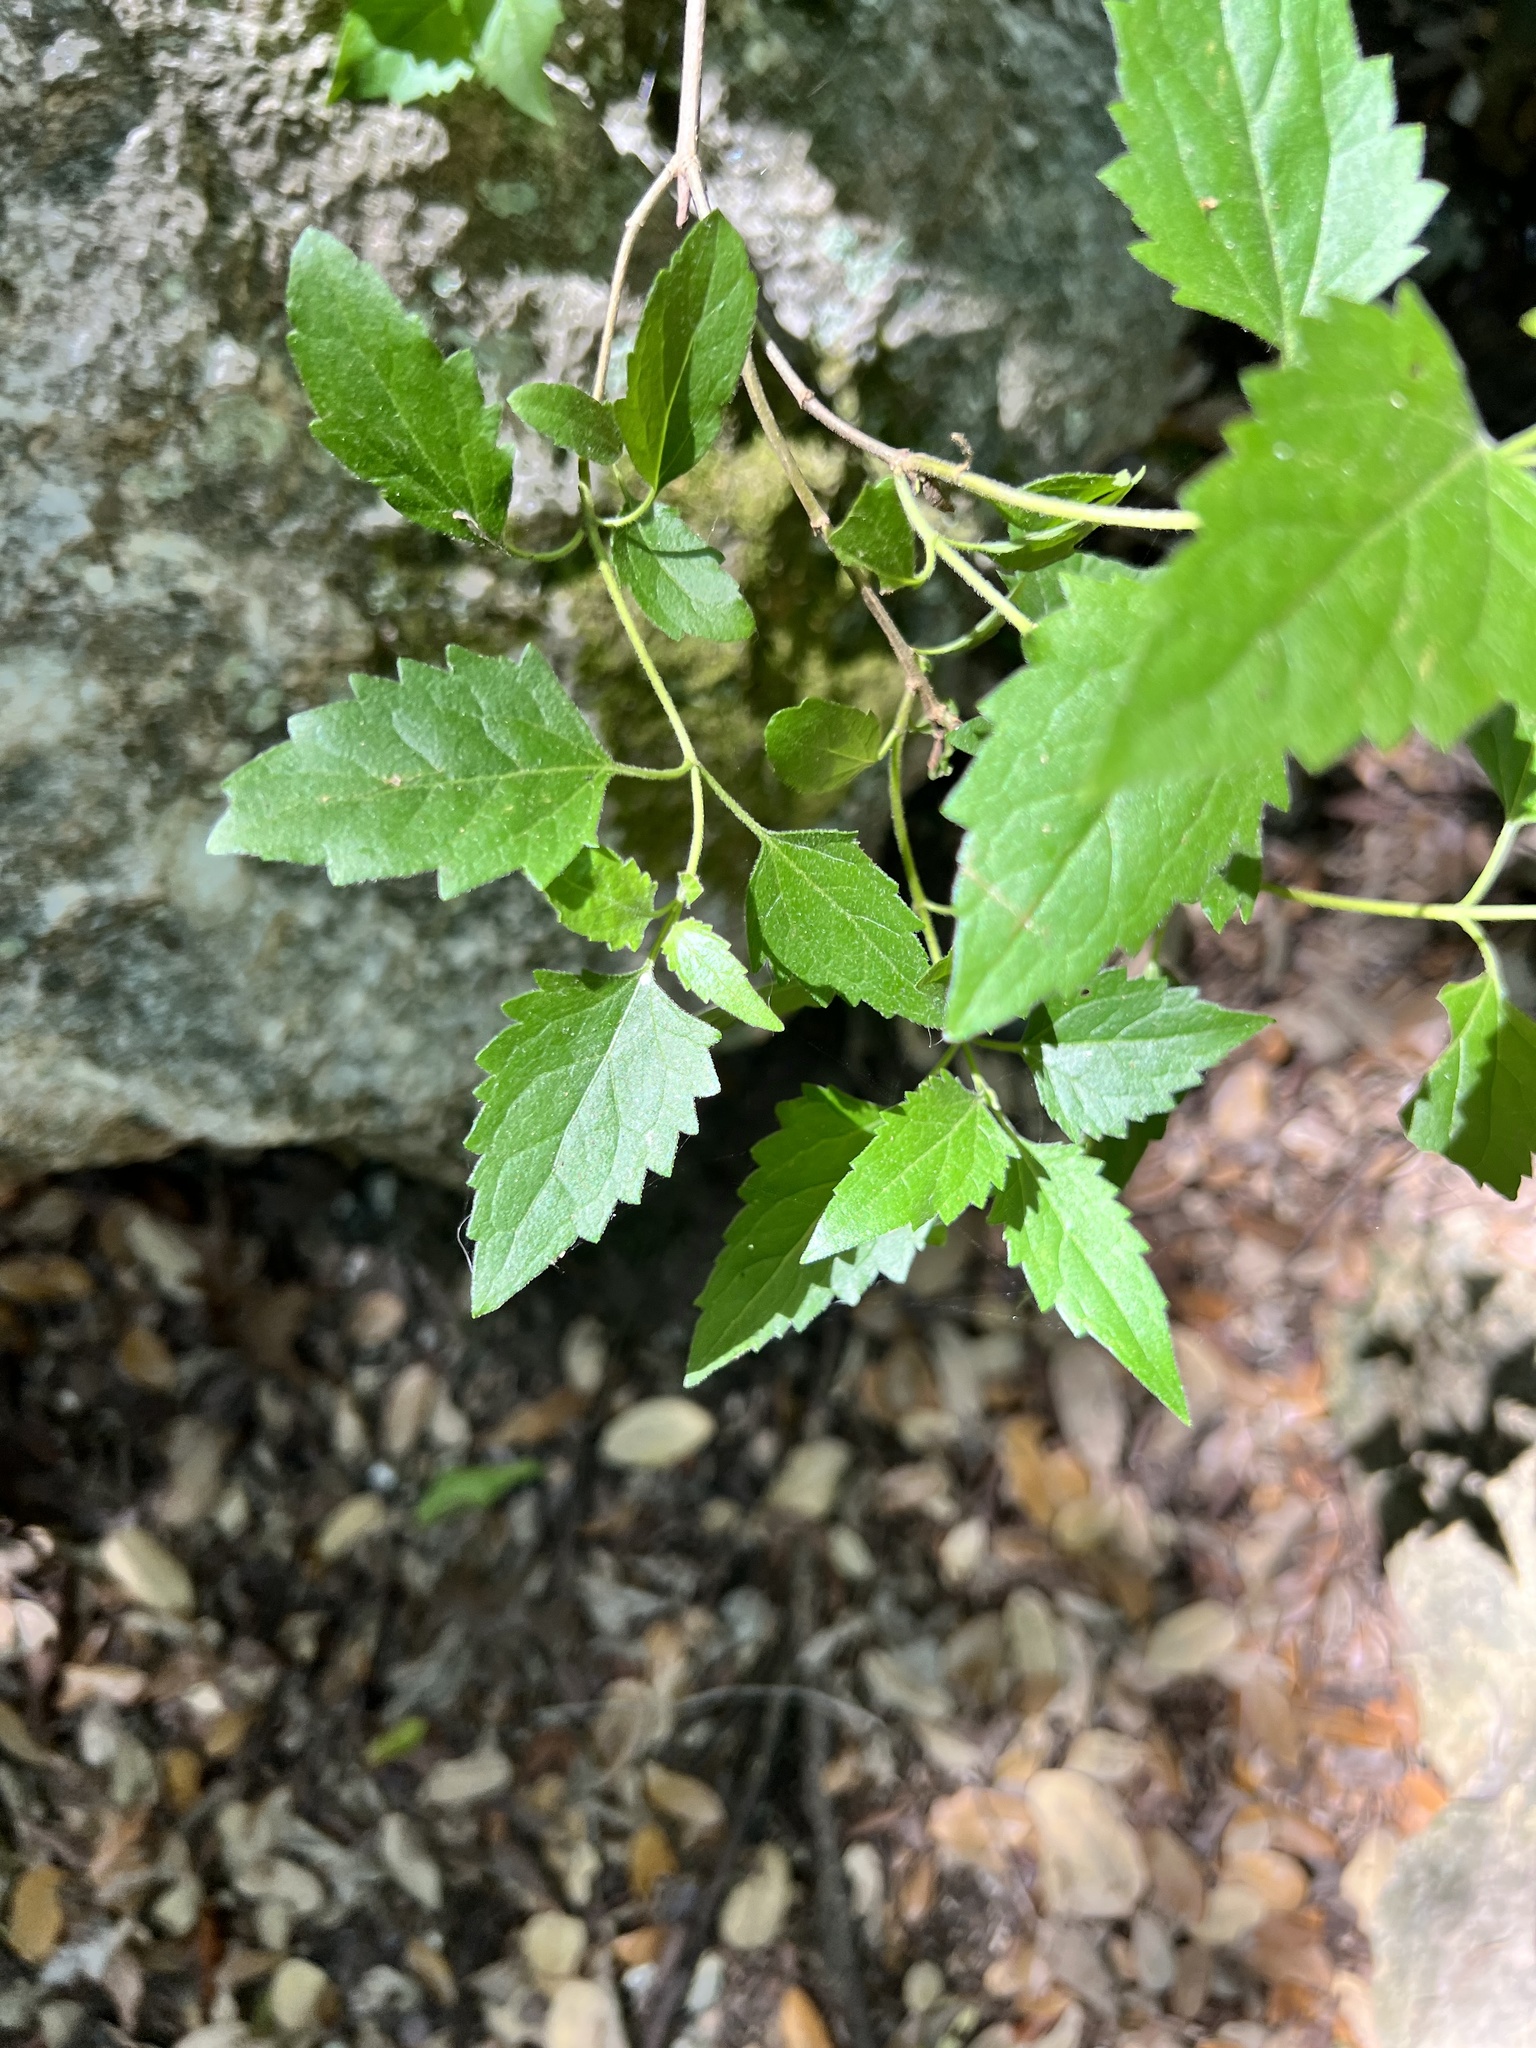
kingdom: Plantae
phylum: Tracheophyta
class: Magnoliopsida
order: Asterales
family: Asteraceae
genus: Ageratina
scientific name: Ageratina havanensis
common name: Havana snakeroot
